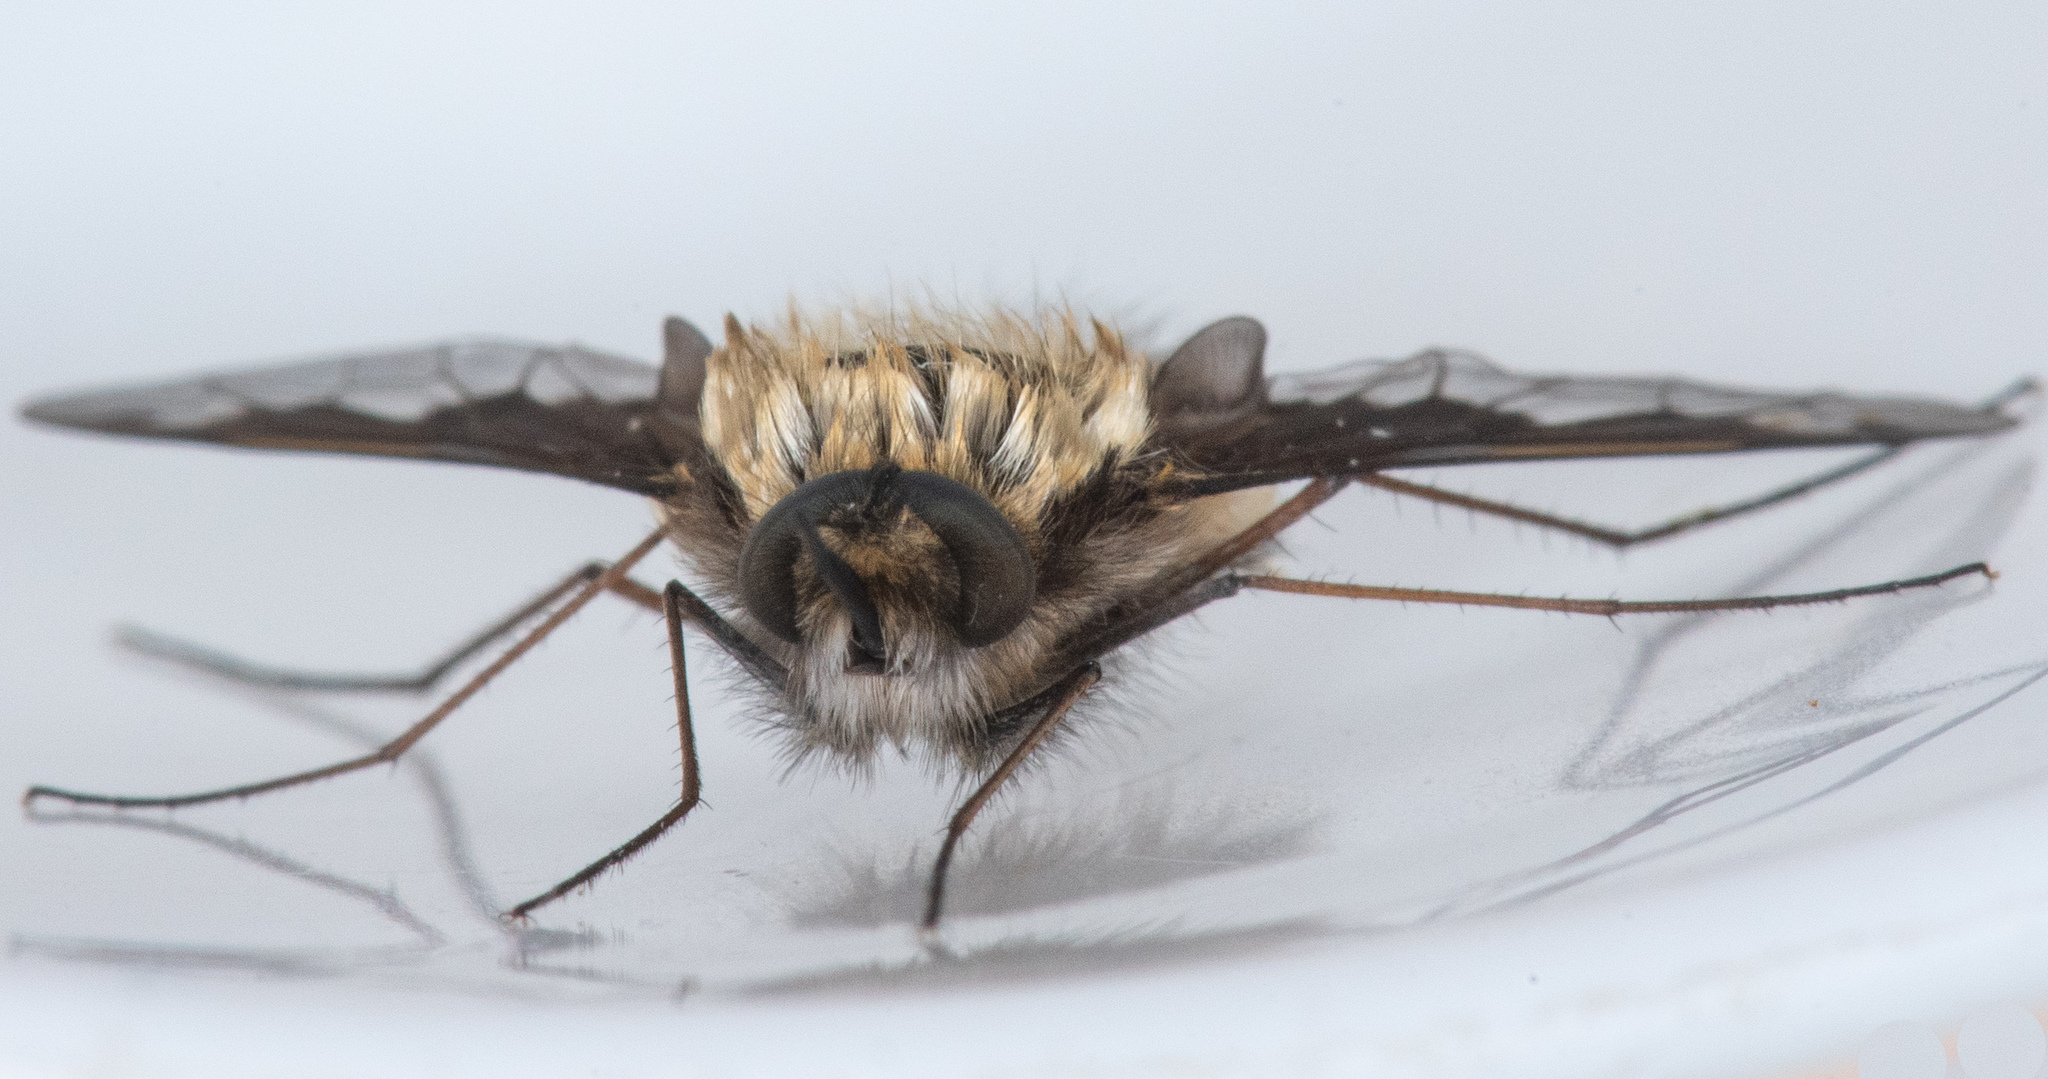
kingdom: Animalia
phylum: Arthropoda
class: Insecta
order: Diptera
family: Bombyliidae
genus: Bombylius
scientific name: Bombylius major
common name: Bee fly
